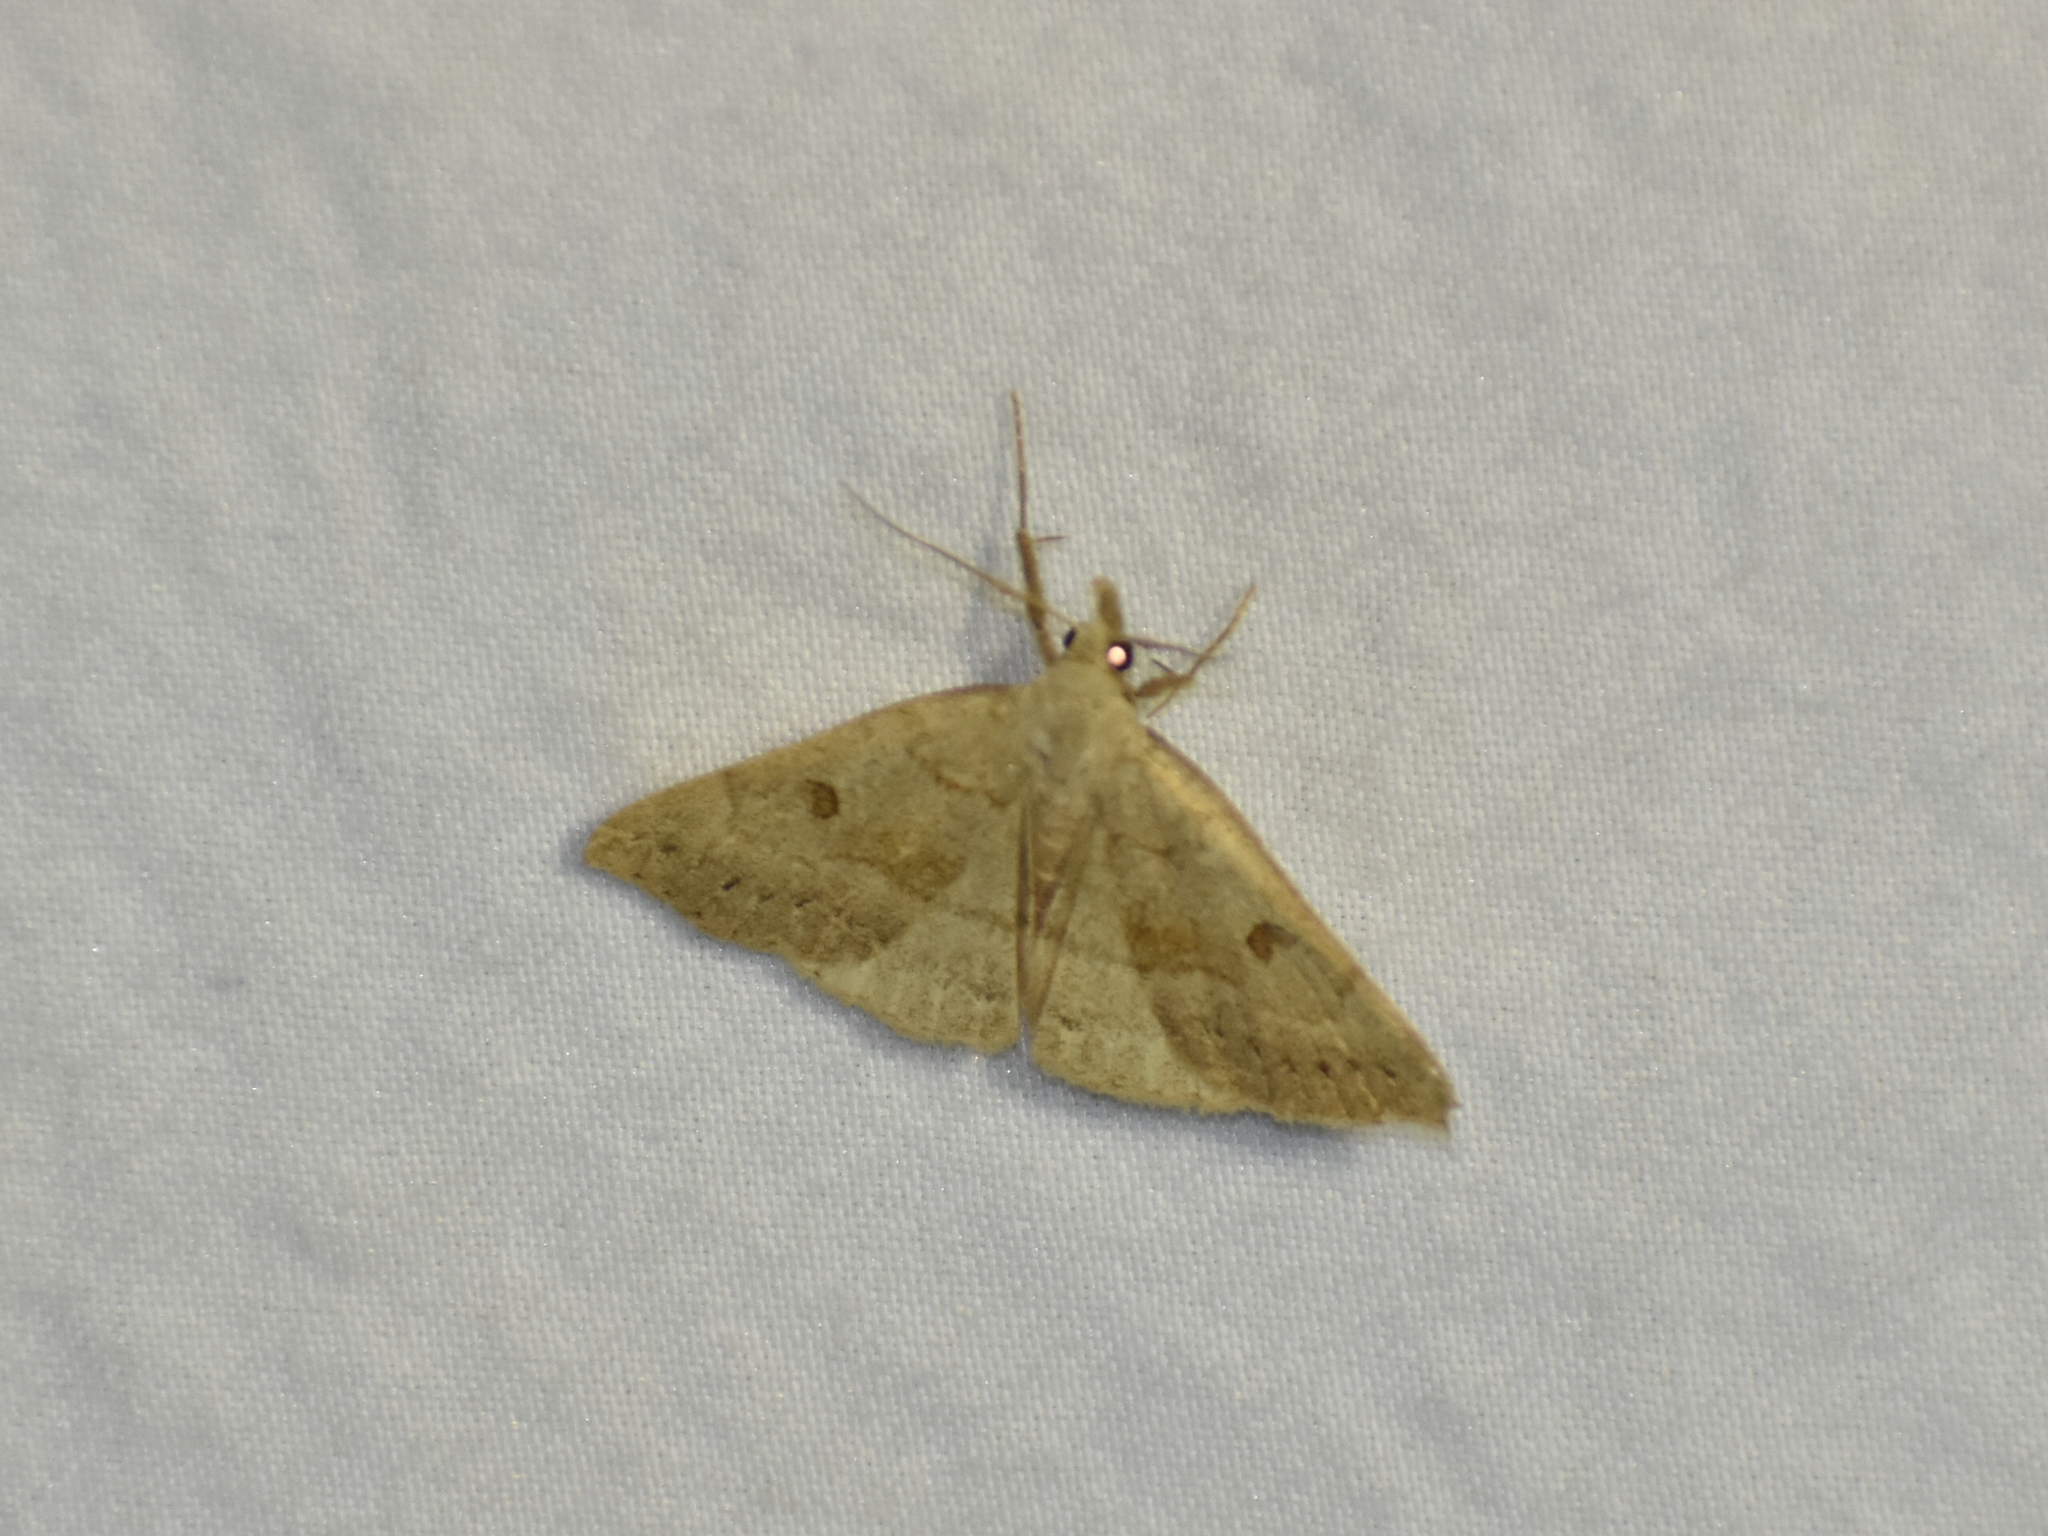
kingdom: Animalia
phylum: Arthropoda
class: Insecta
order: Lepidoptera
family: Erebidae
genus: Macrochilo
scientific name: Macrochilo morbidalis
